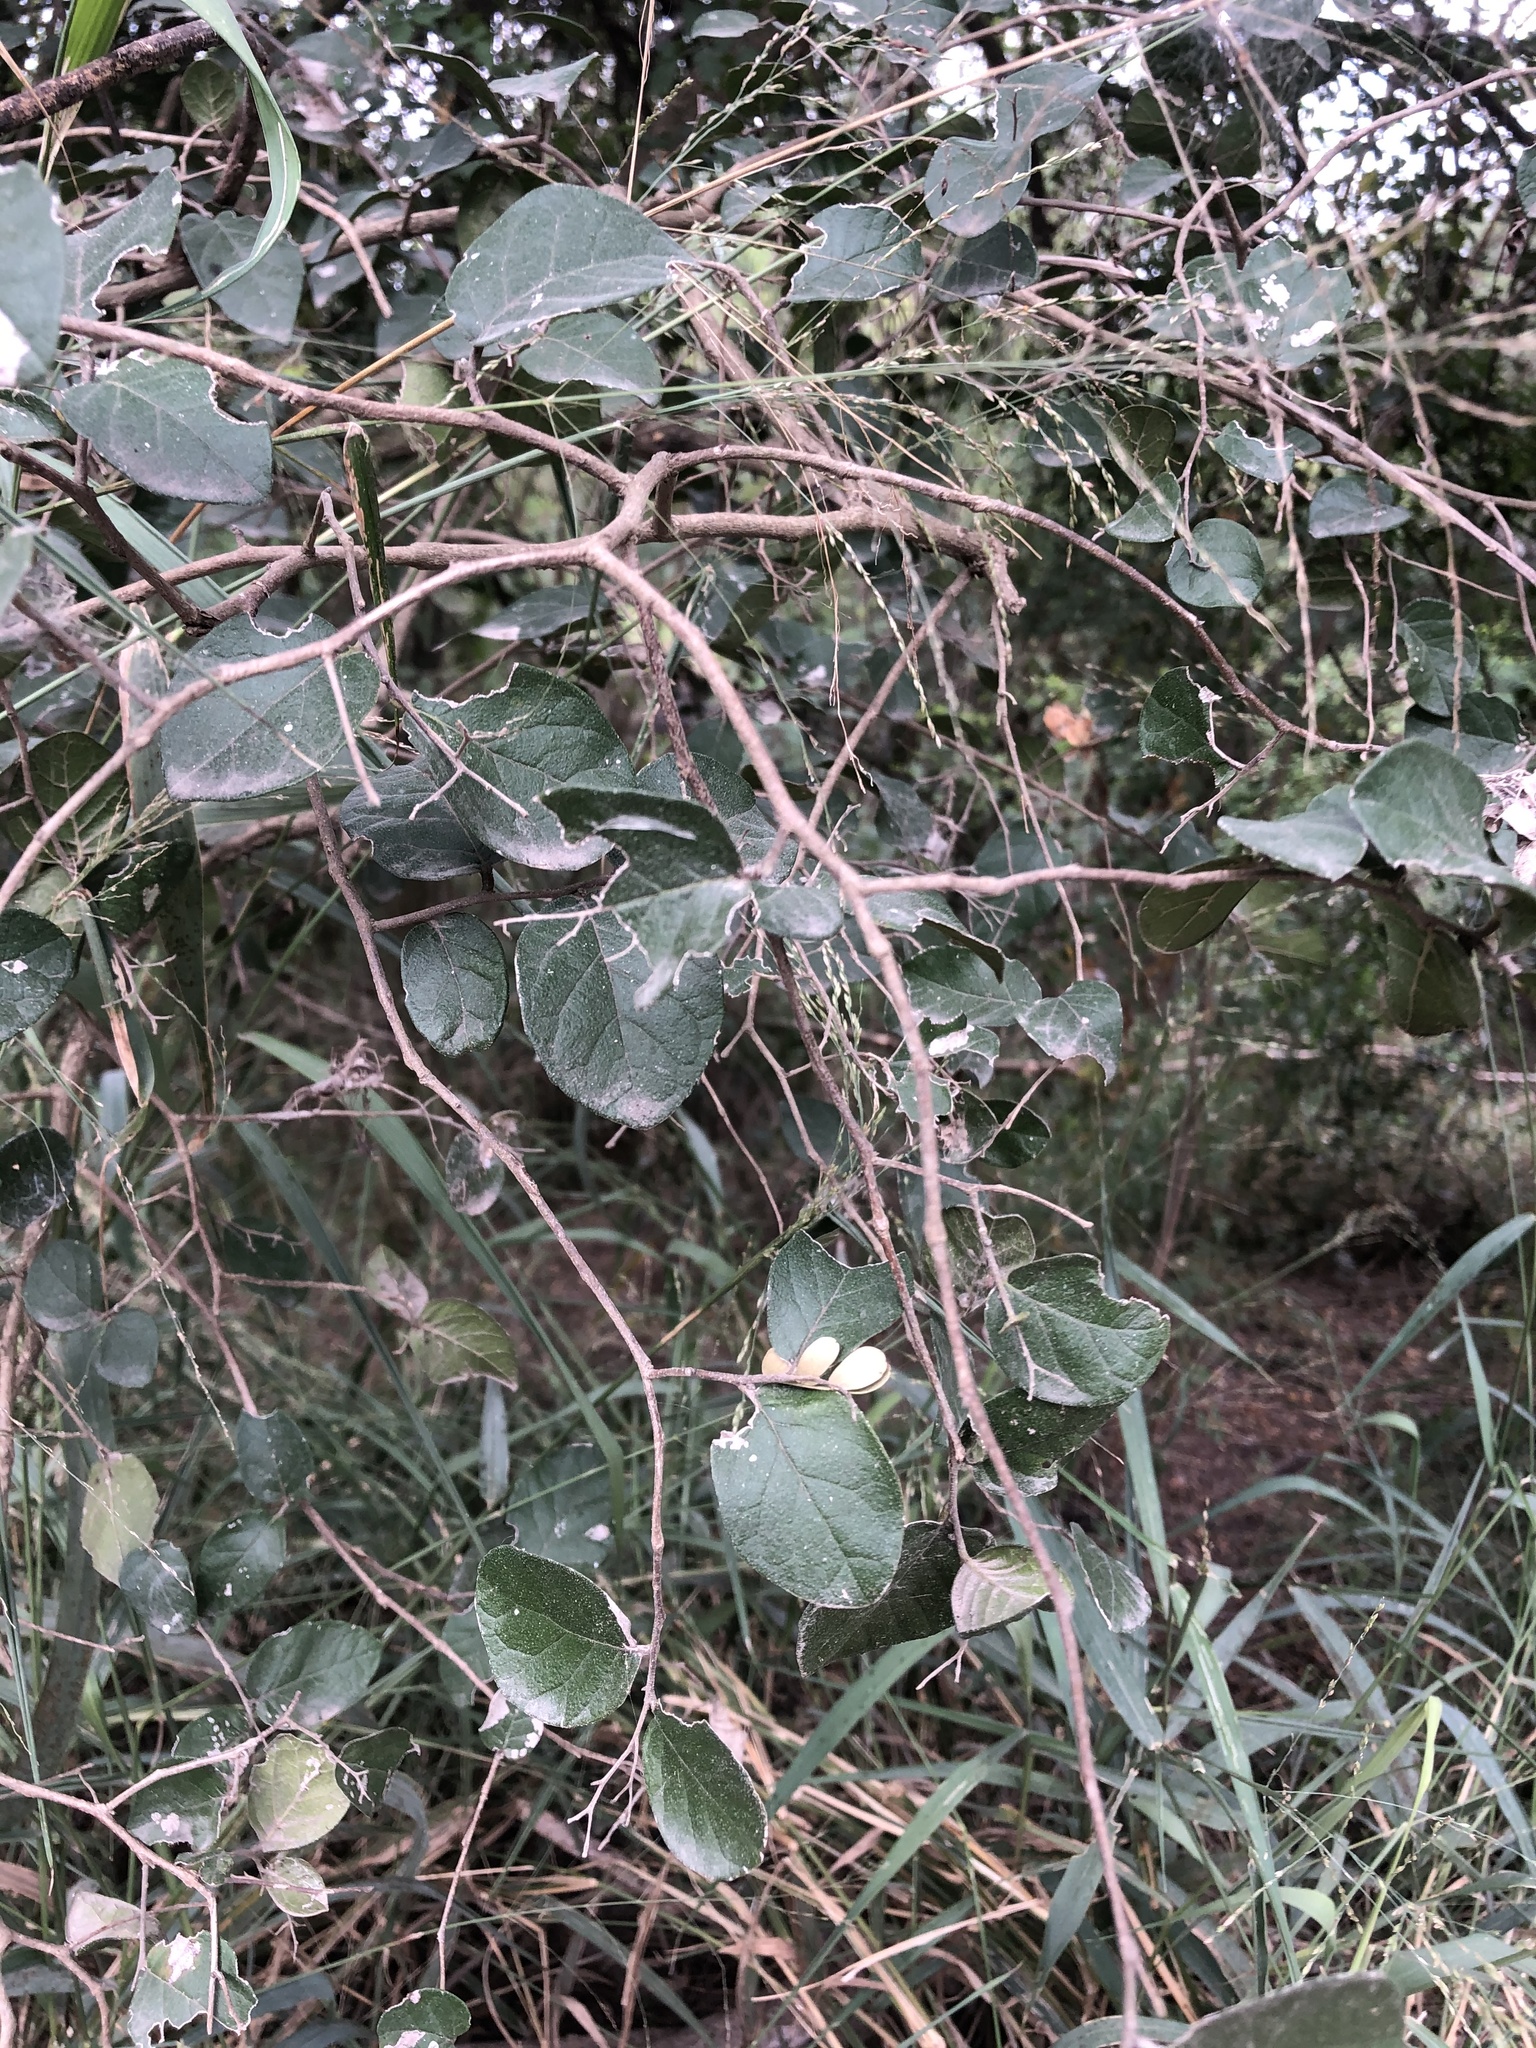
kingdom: Plantae
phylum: Tracheophyta
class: Magnoliopsida
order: Boraginales
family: Ehretiaceae
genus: Ehretia
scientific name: Ehretia anacua
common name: Sugarberry
